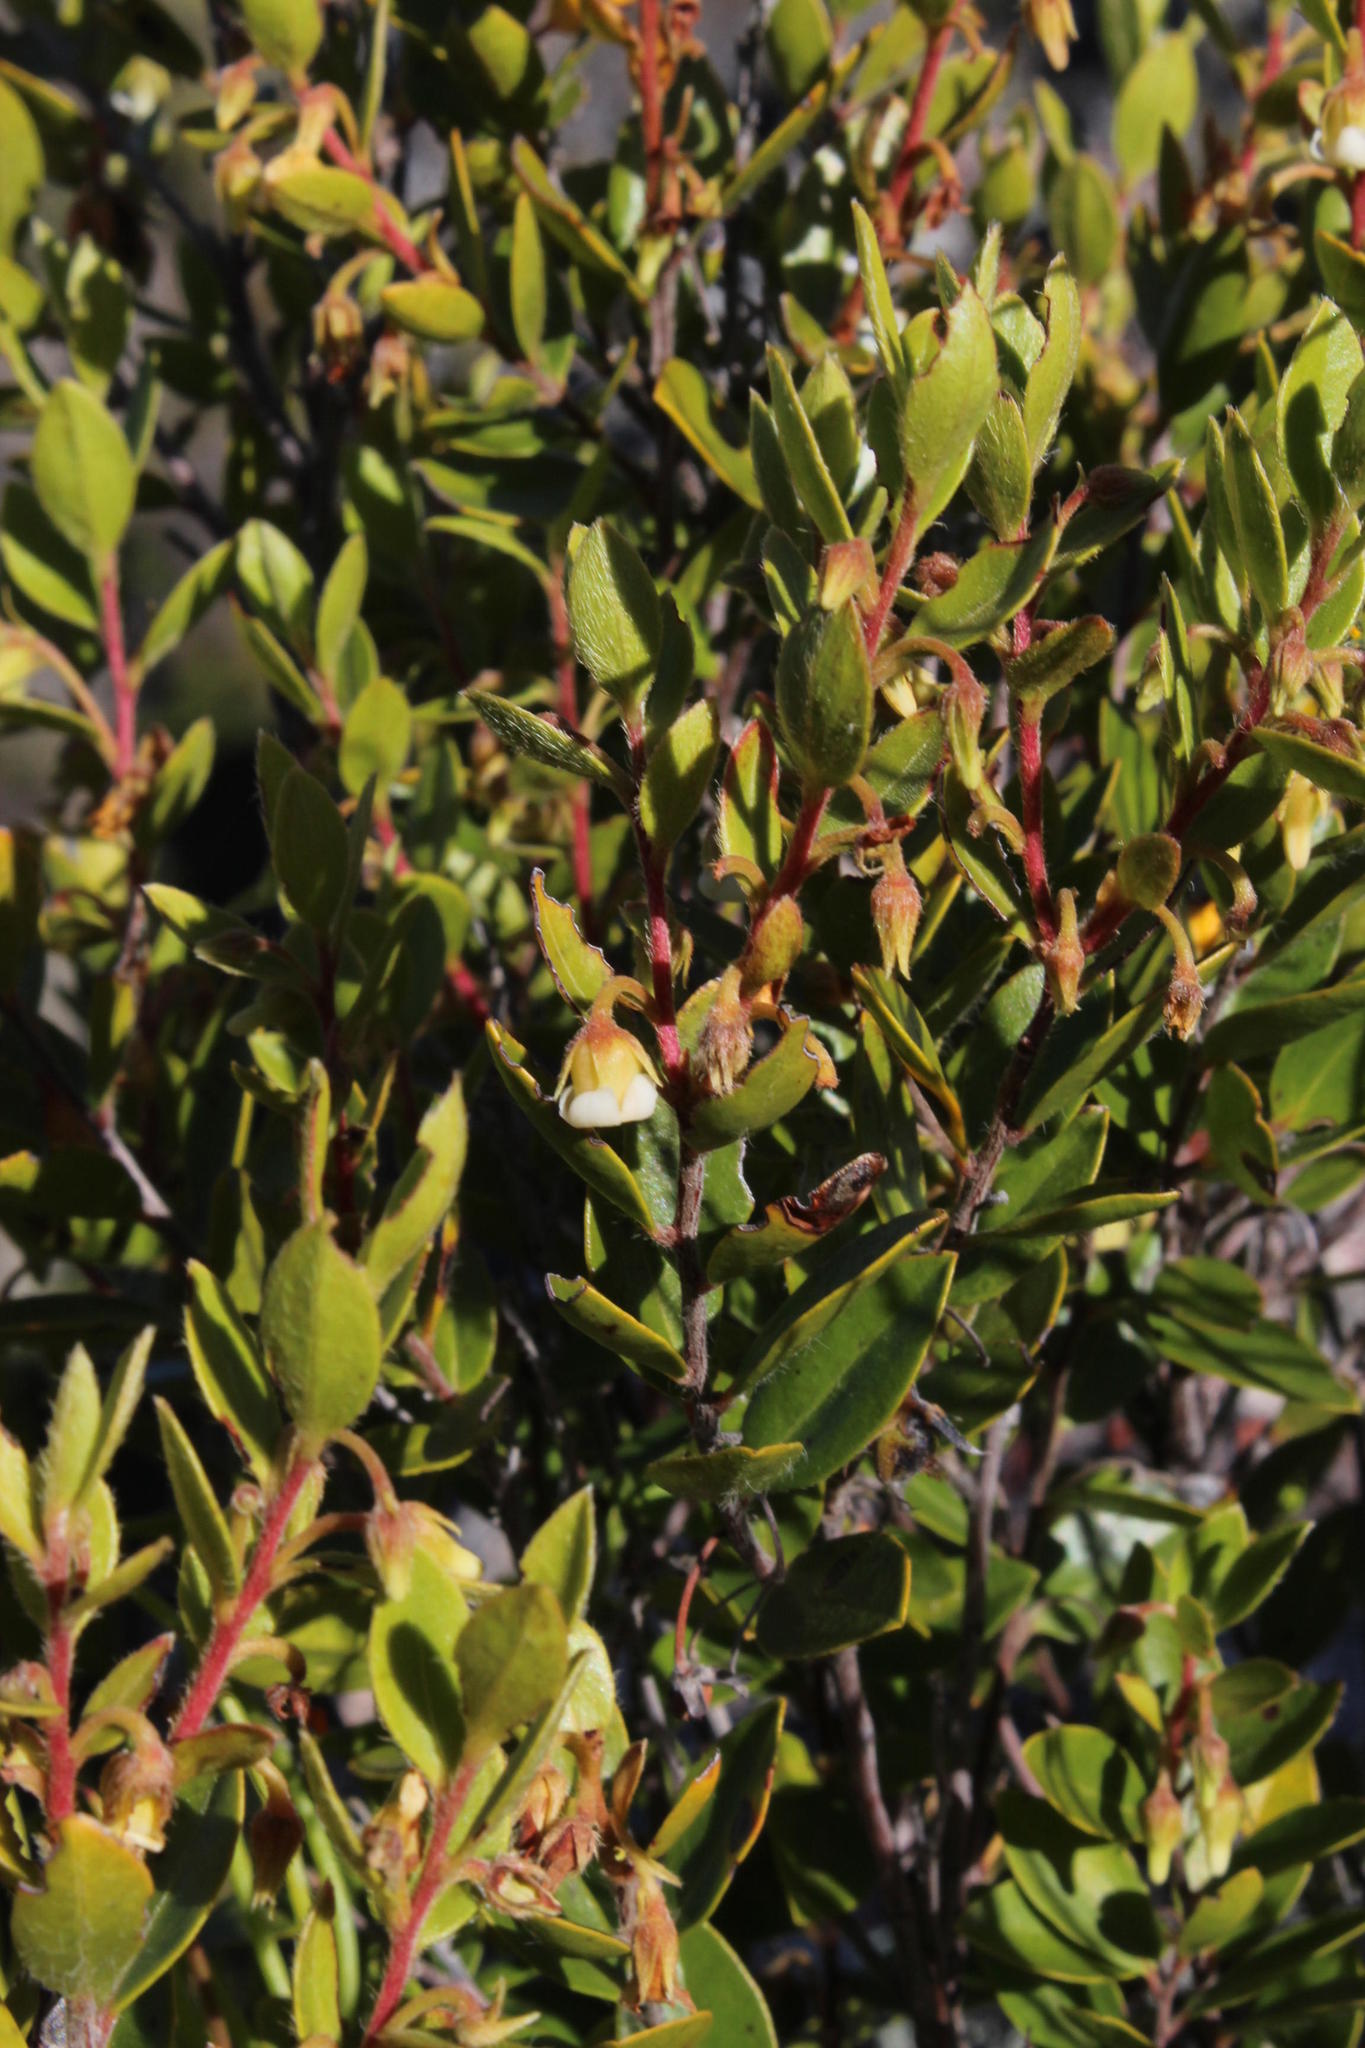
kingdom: Plantae
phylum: Tracheophyta
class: Magnoliopsida
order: Ericales
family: Ebenaceae
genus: Diospyros
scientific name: Diospyros glabra
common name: Fynbos star apple
